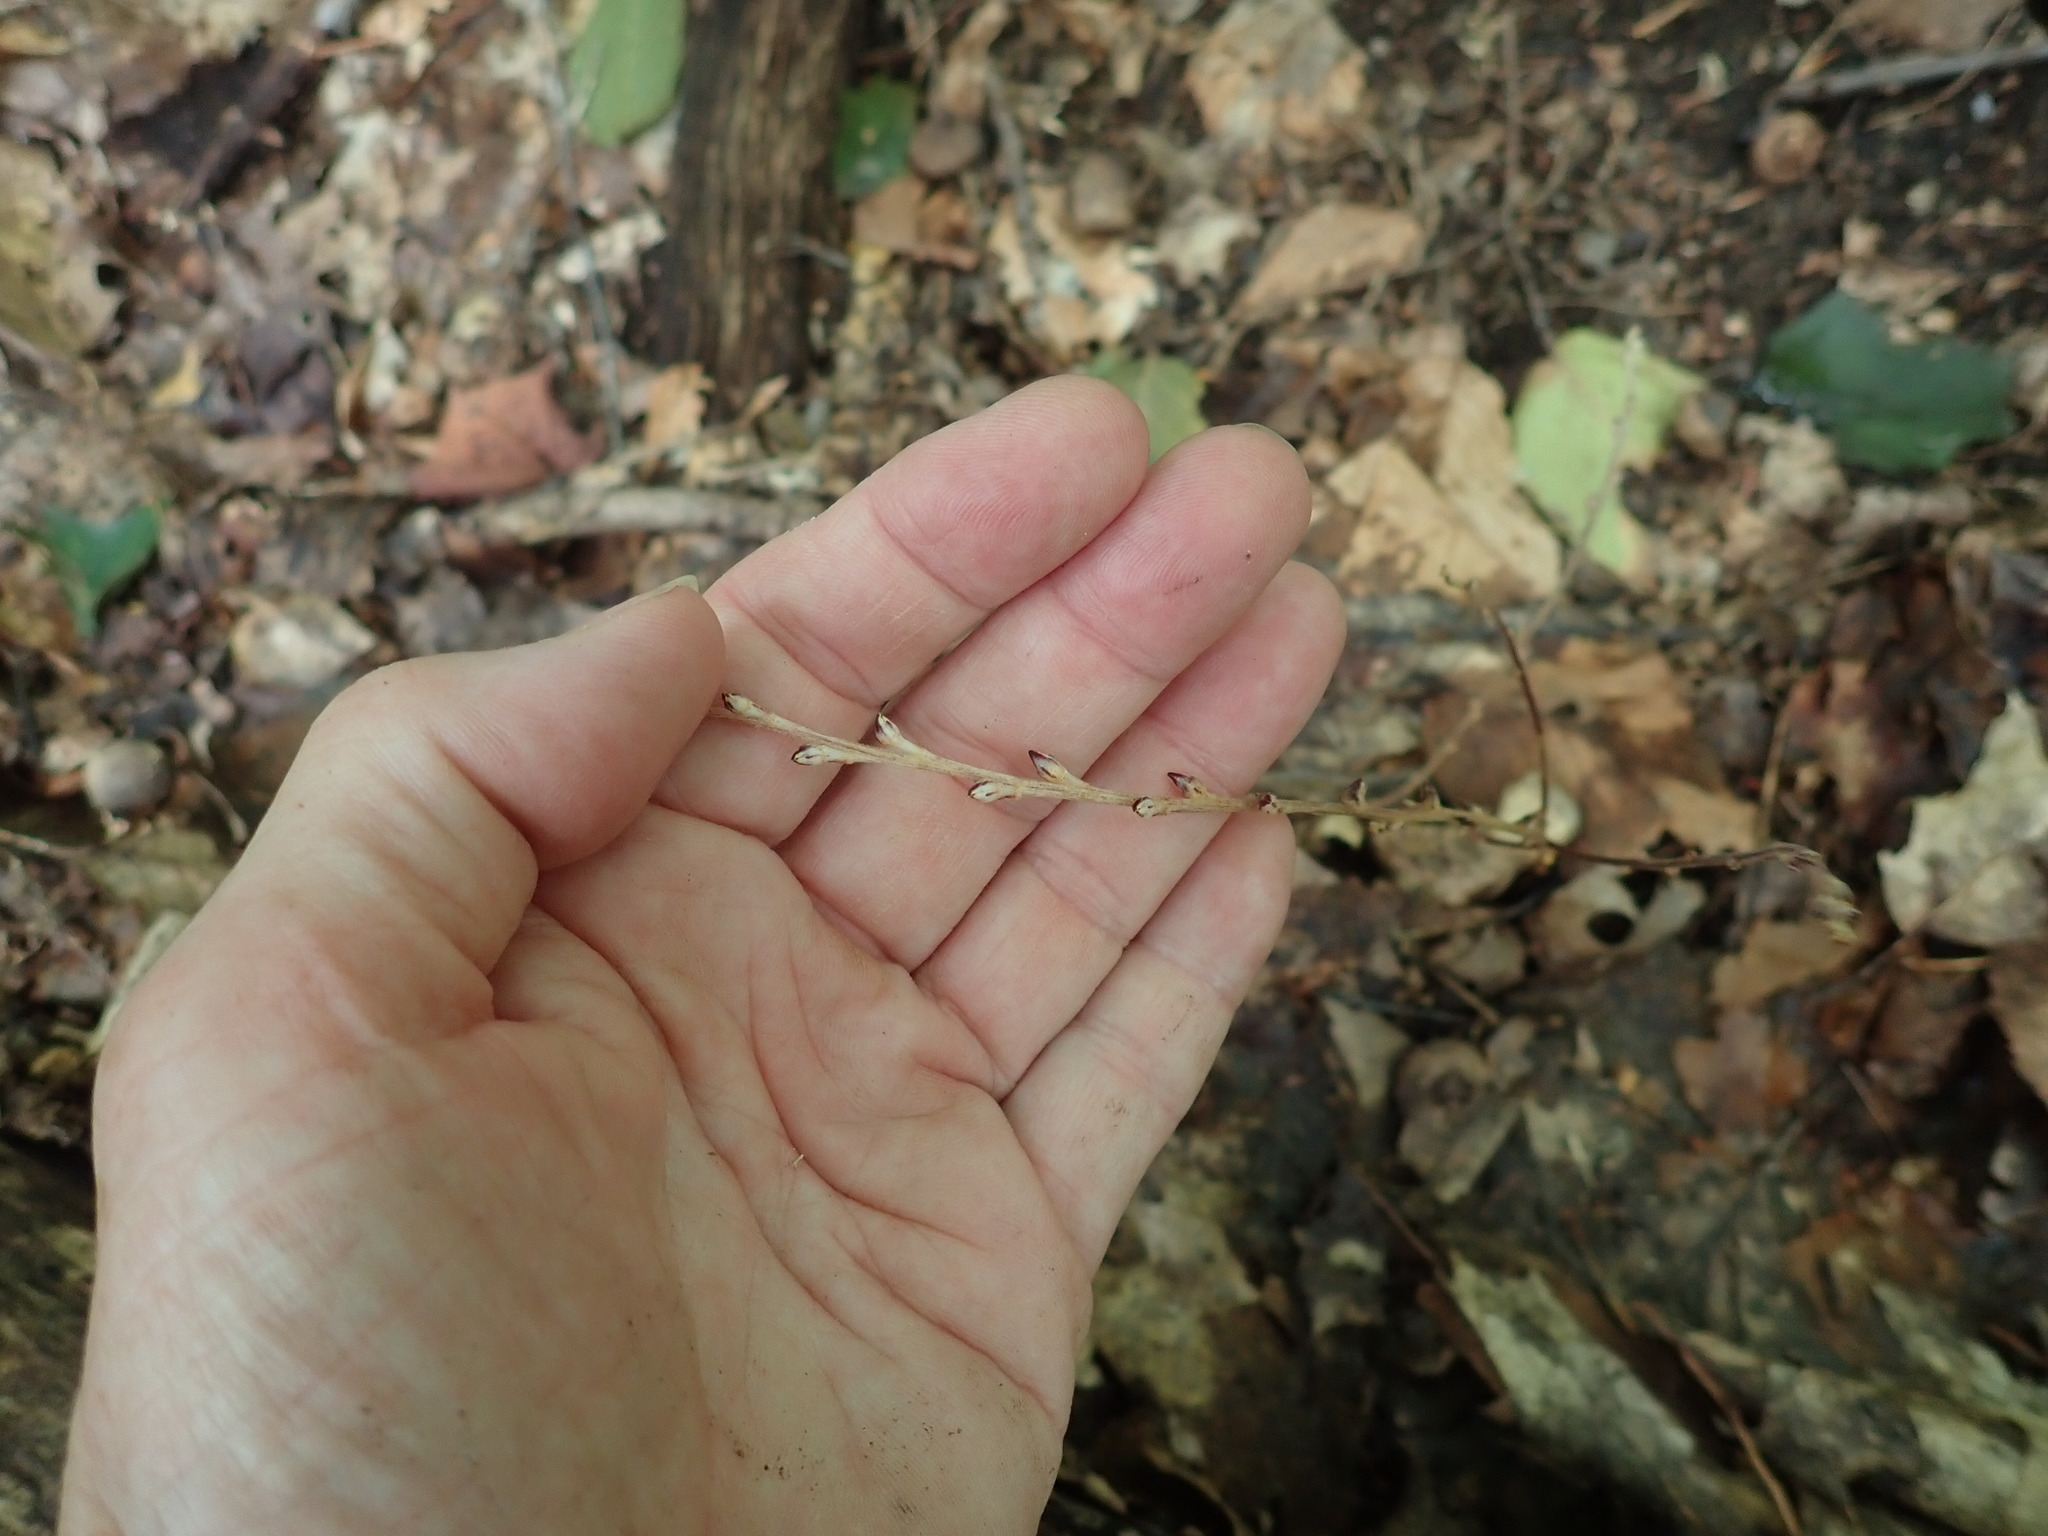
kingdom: Plantae
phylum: Tracheophyta
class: Magnoliopsida
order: Lamiales
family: Orobanchaceae
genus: Epifagus
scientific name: Epifagus virginiana
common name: Beechdrops
